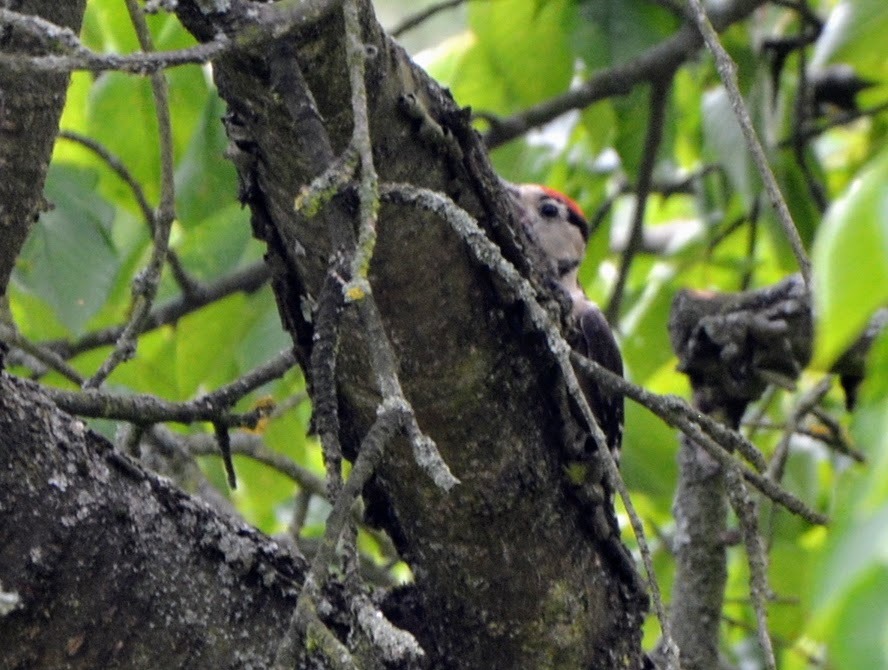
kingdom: Animalia
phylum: Chordata
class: Aves
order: Piciformes
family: Picidae
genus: Dendrocopos
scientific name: Dendrocopos major
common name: Great spotted woodpecker
